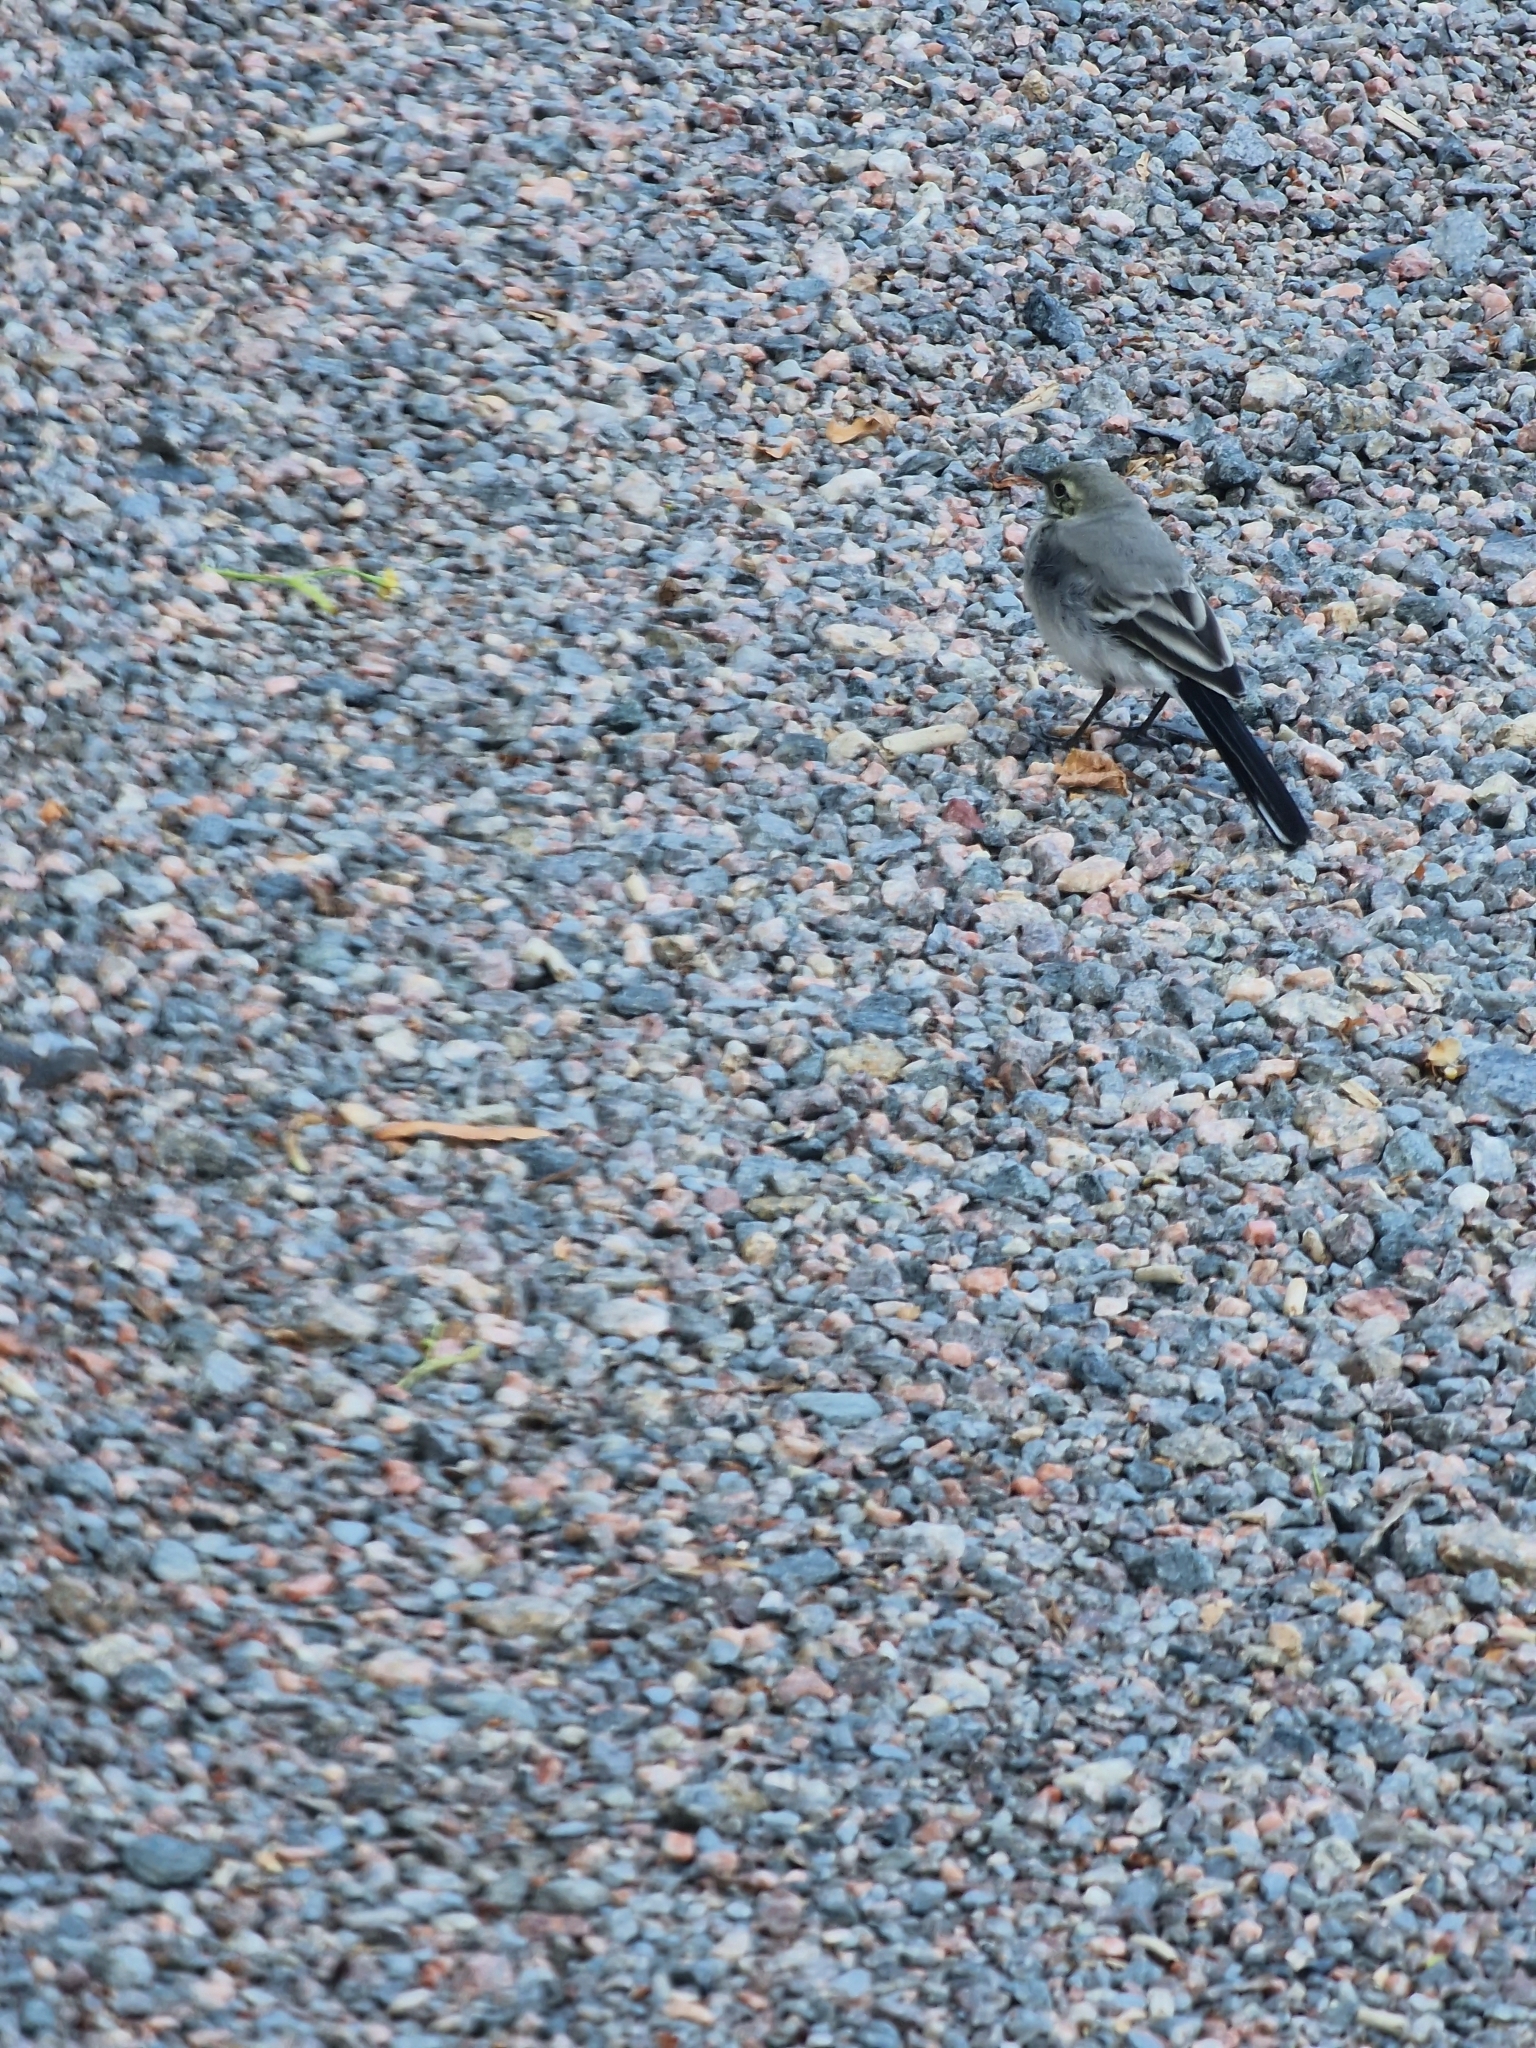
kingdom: Animalia
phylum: Chordata
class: Aves
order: Passeriformes
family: Motacillidae
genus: Motacilla
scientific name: Motacilla alba
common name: White wagtail
